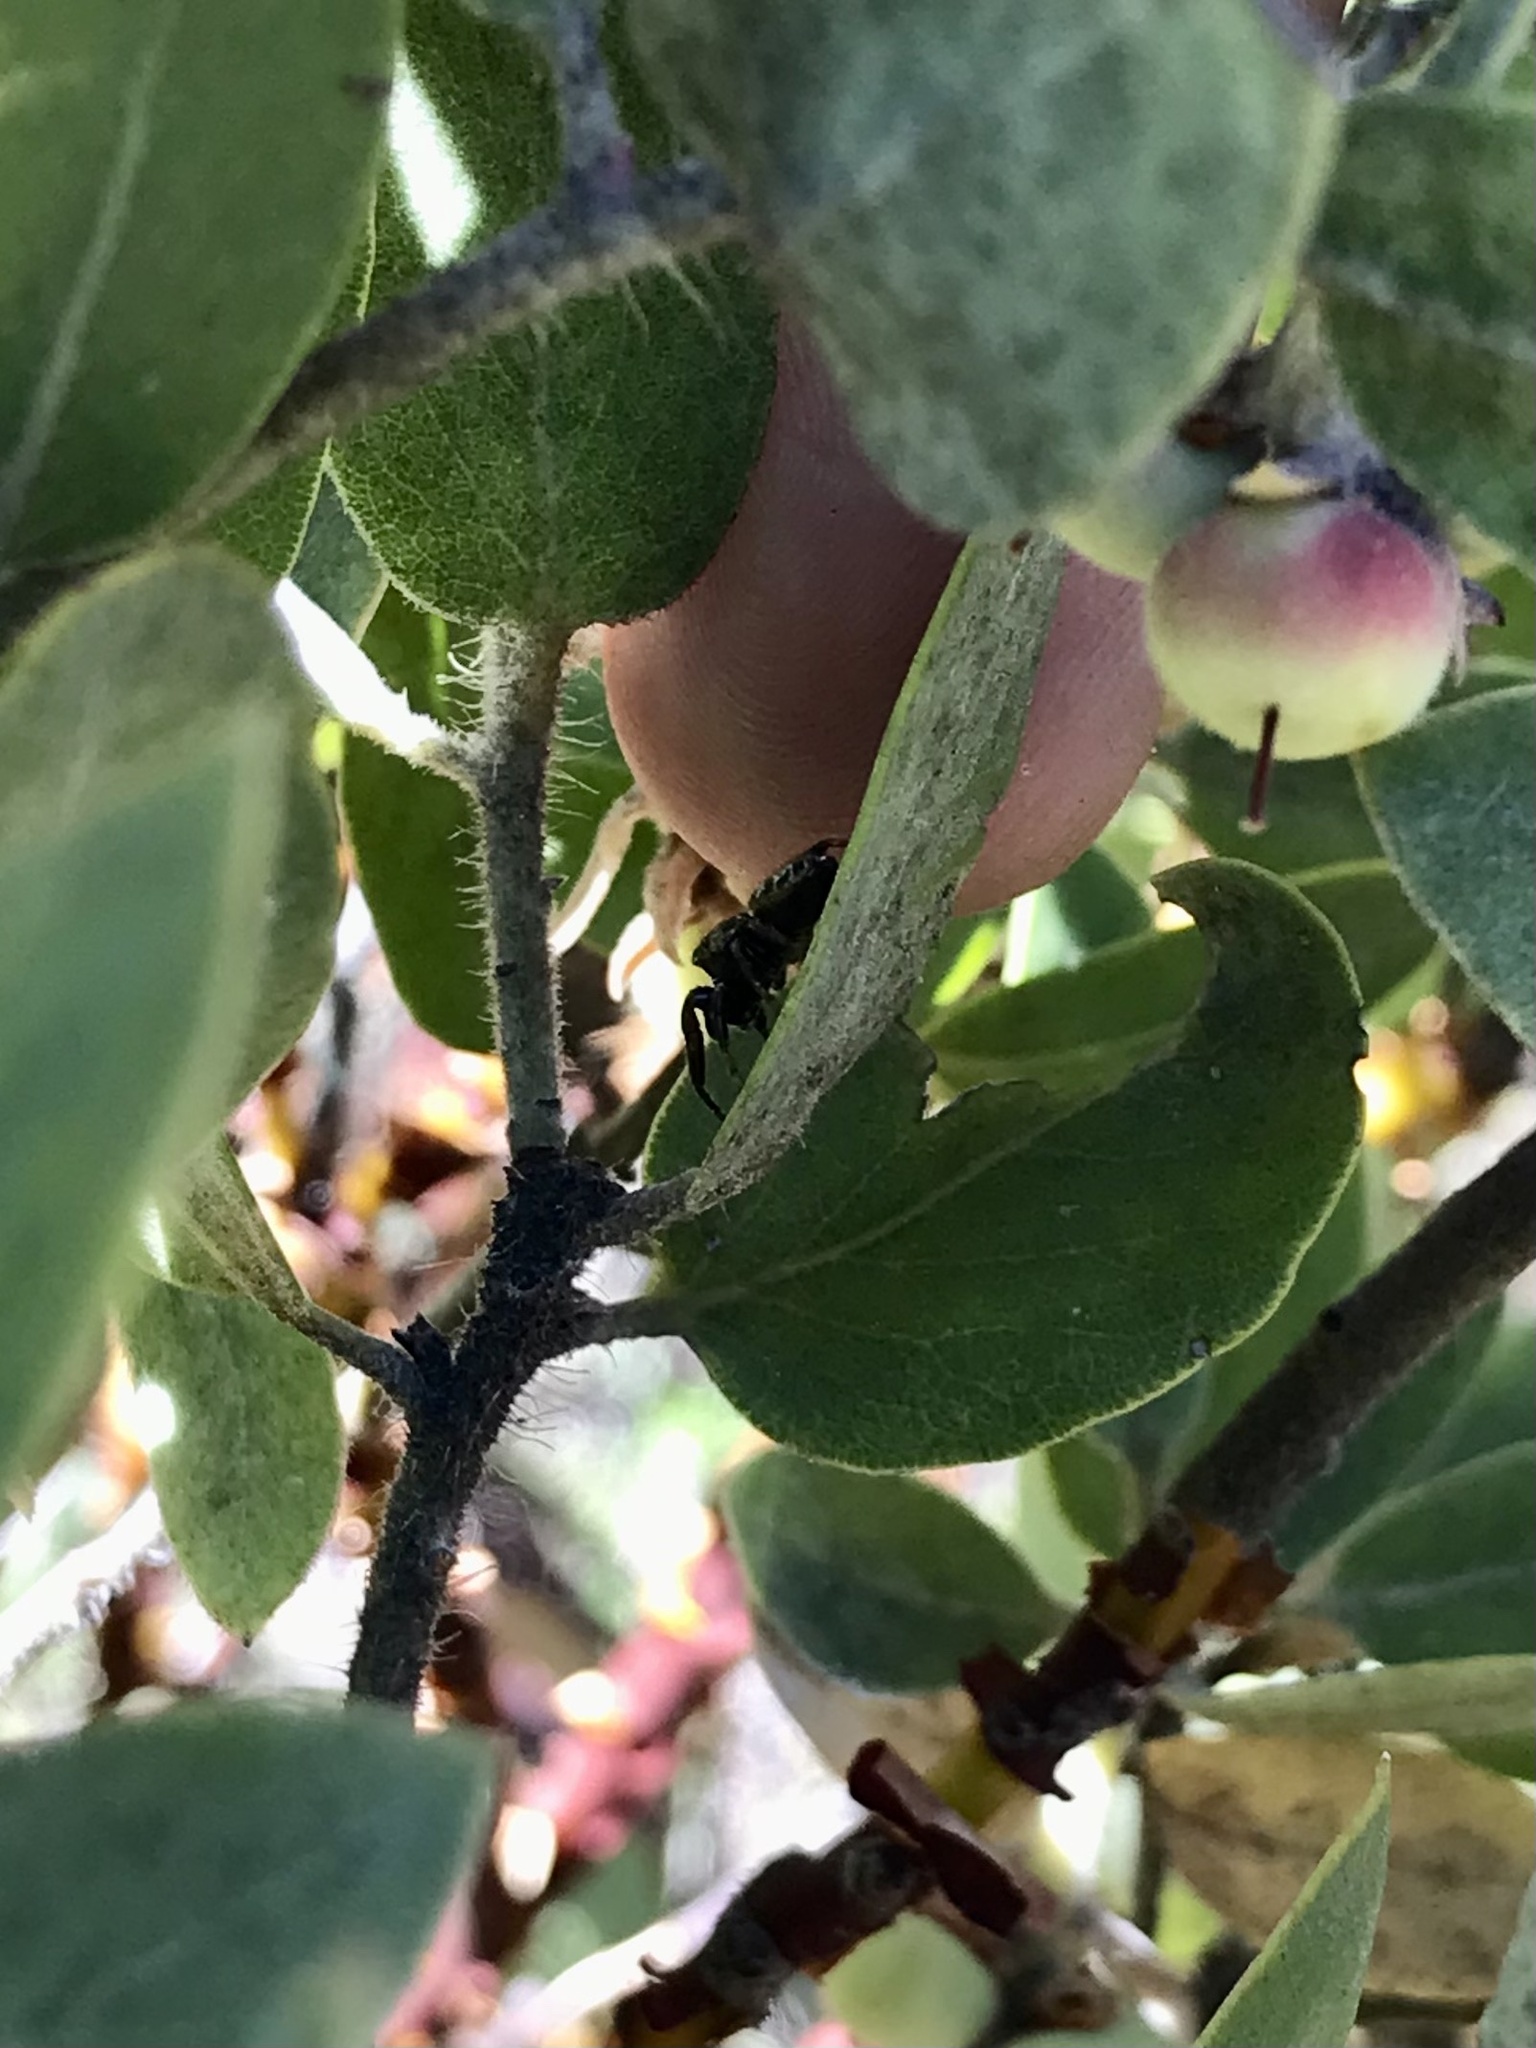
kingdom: Animalia
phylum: Arthropoda
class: Arachnida
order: Araneae
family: Salticidae
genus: Metaphidippus
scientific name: Metaphidippus manni
